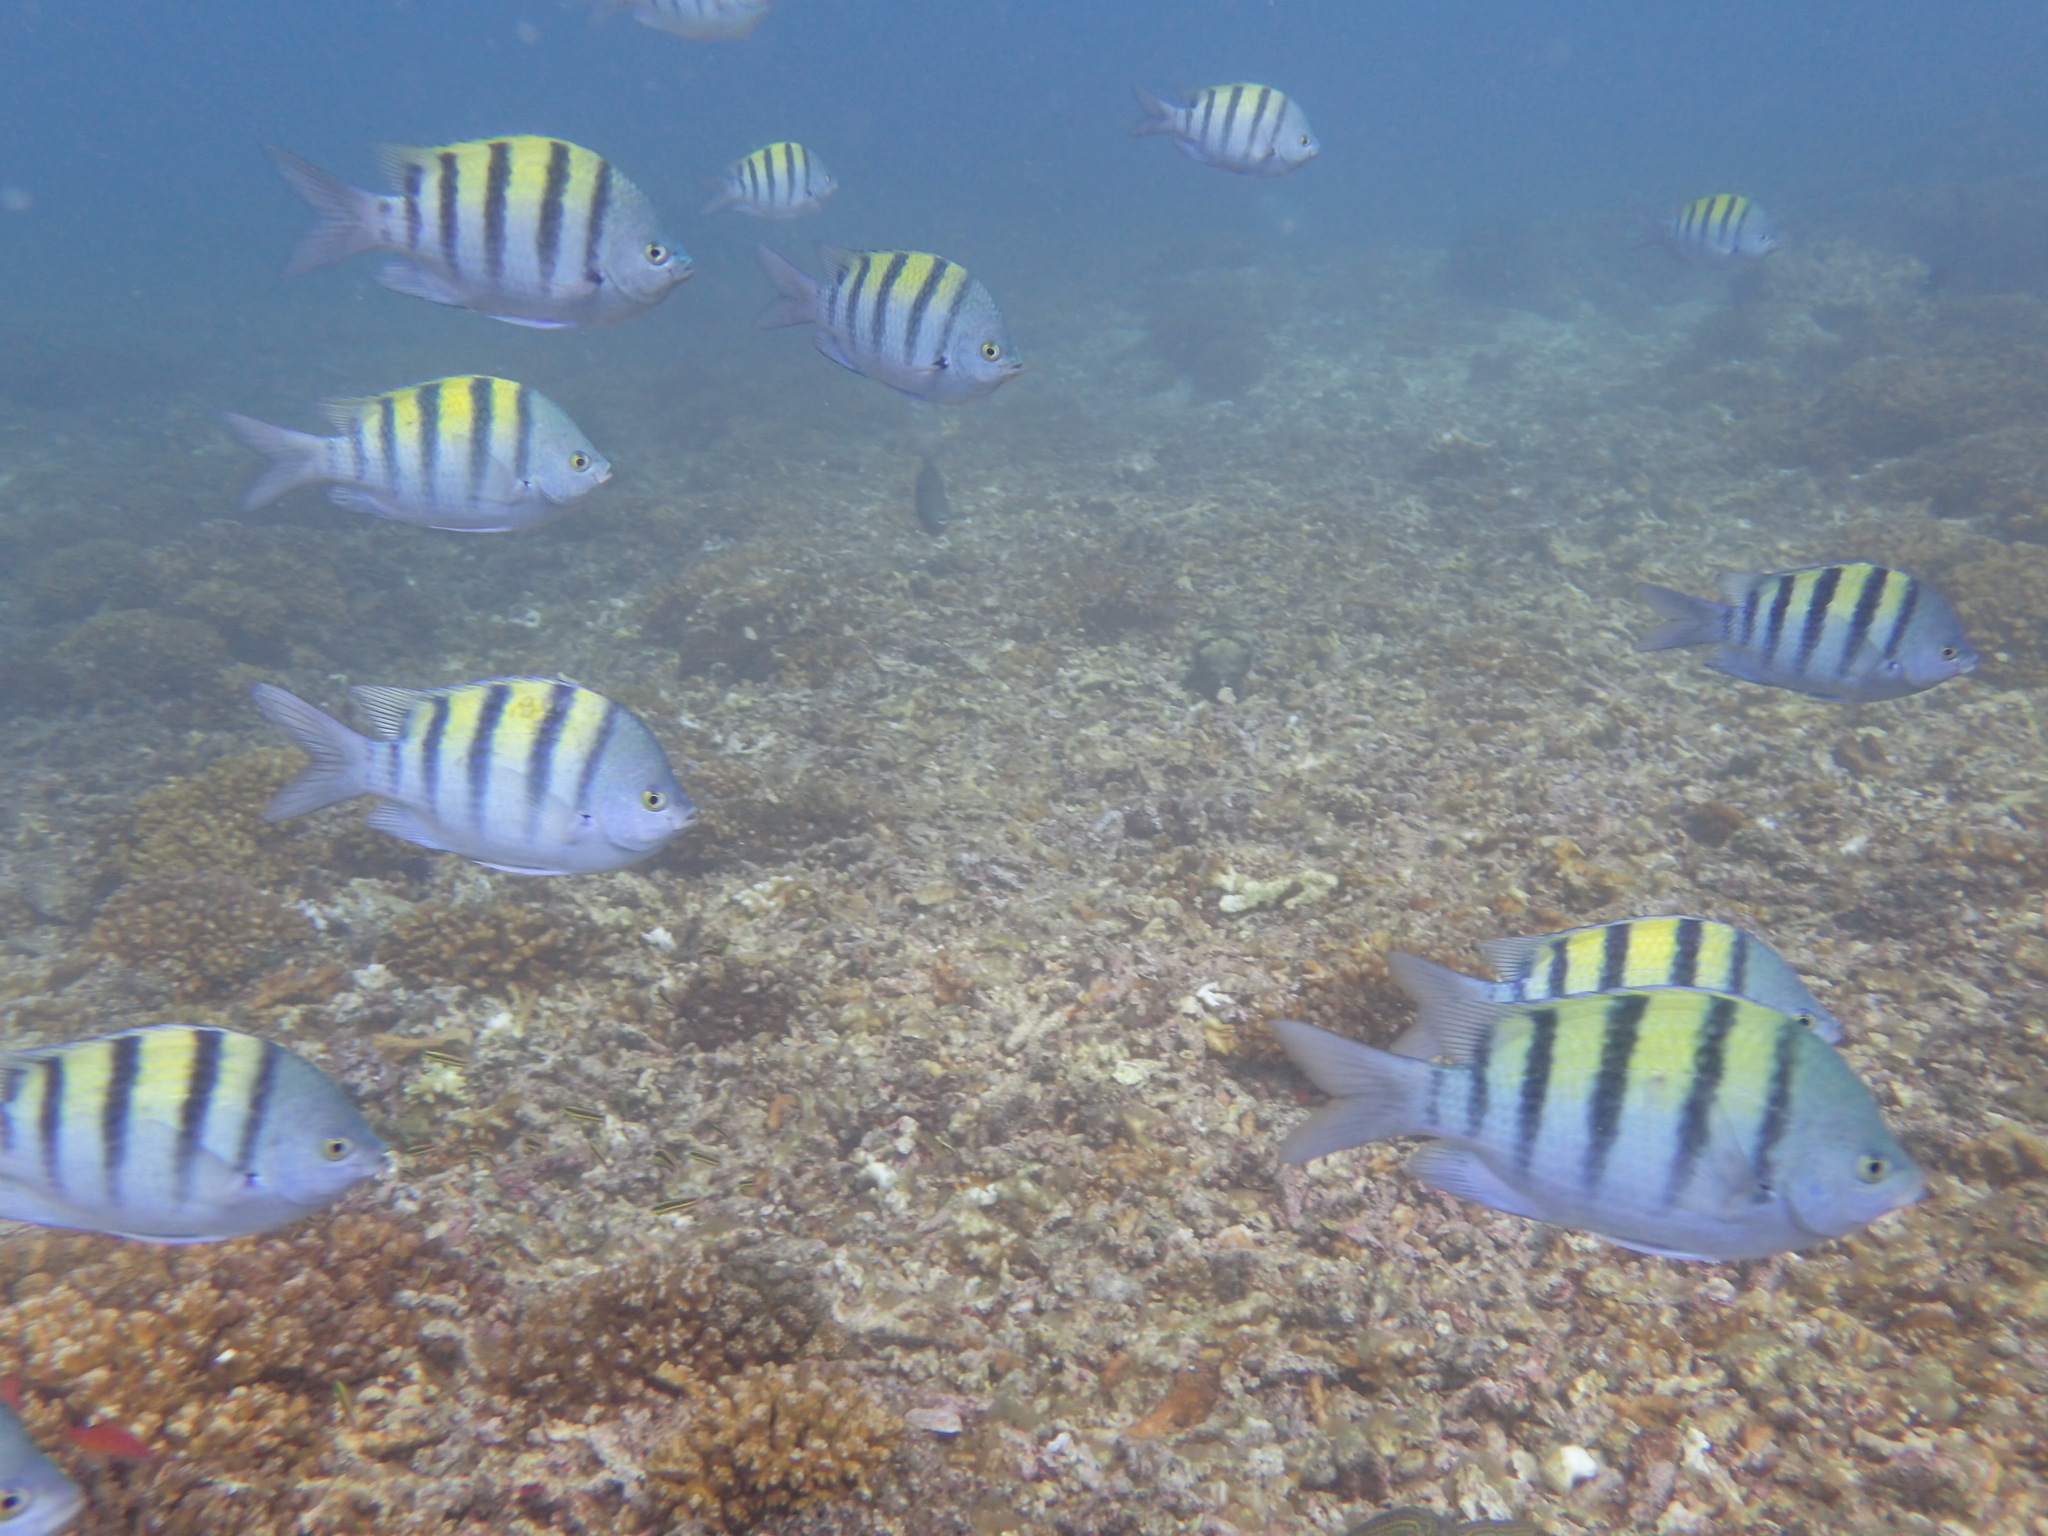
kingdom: Animalia
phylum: Chordata
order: Perciformes
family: Pomacentridae
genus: Abudefduf
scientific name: Abudefduf troschelii
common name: Panamic sergeant major
